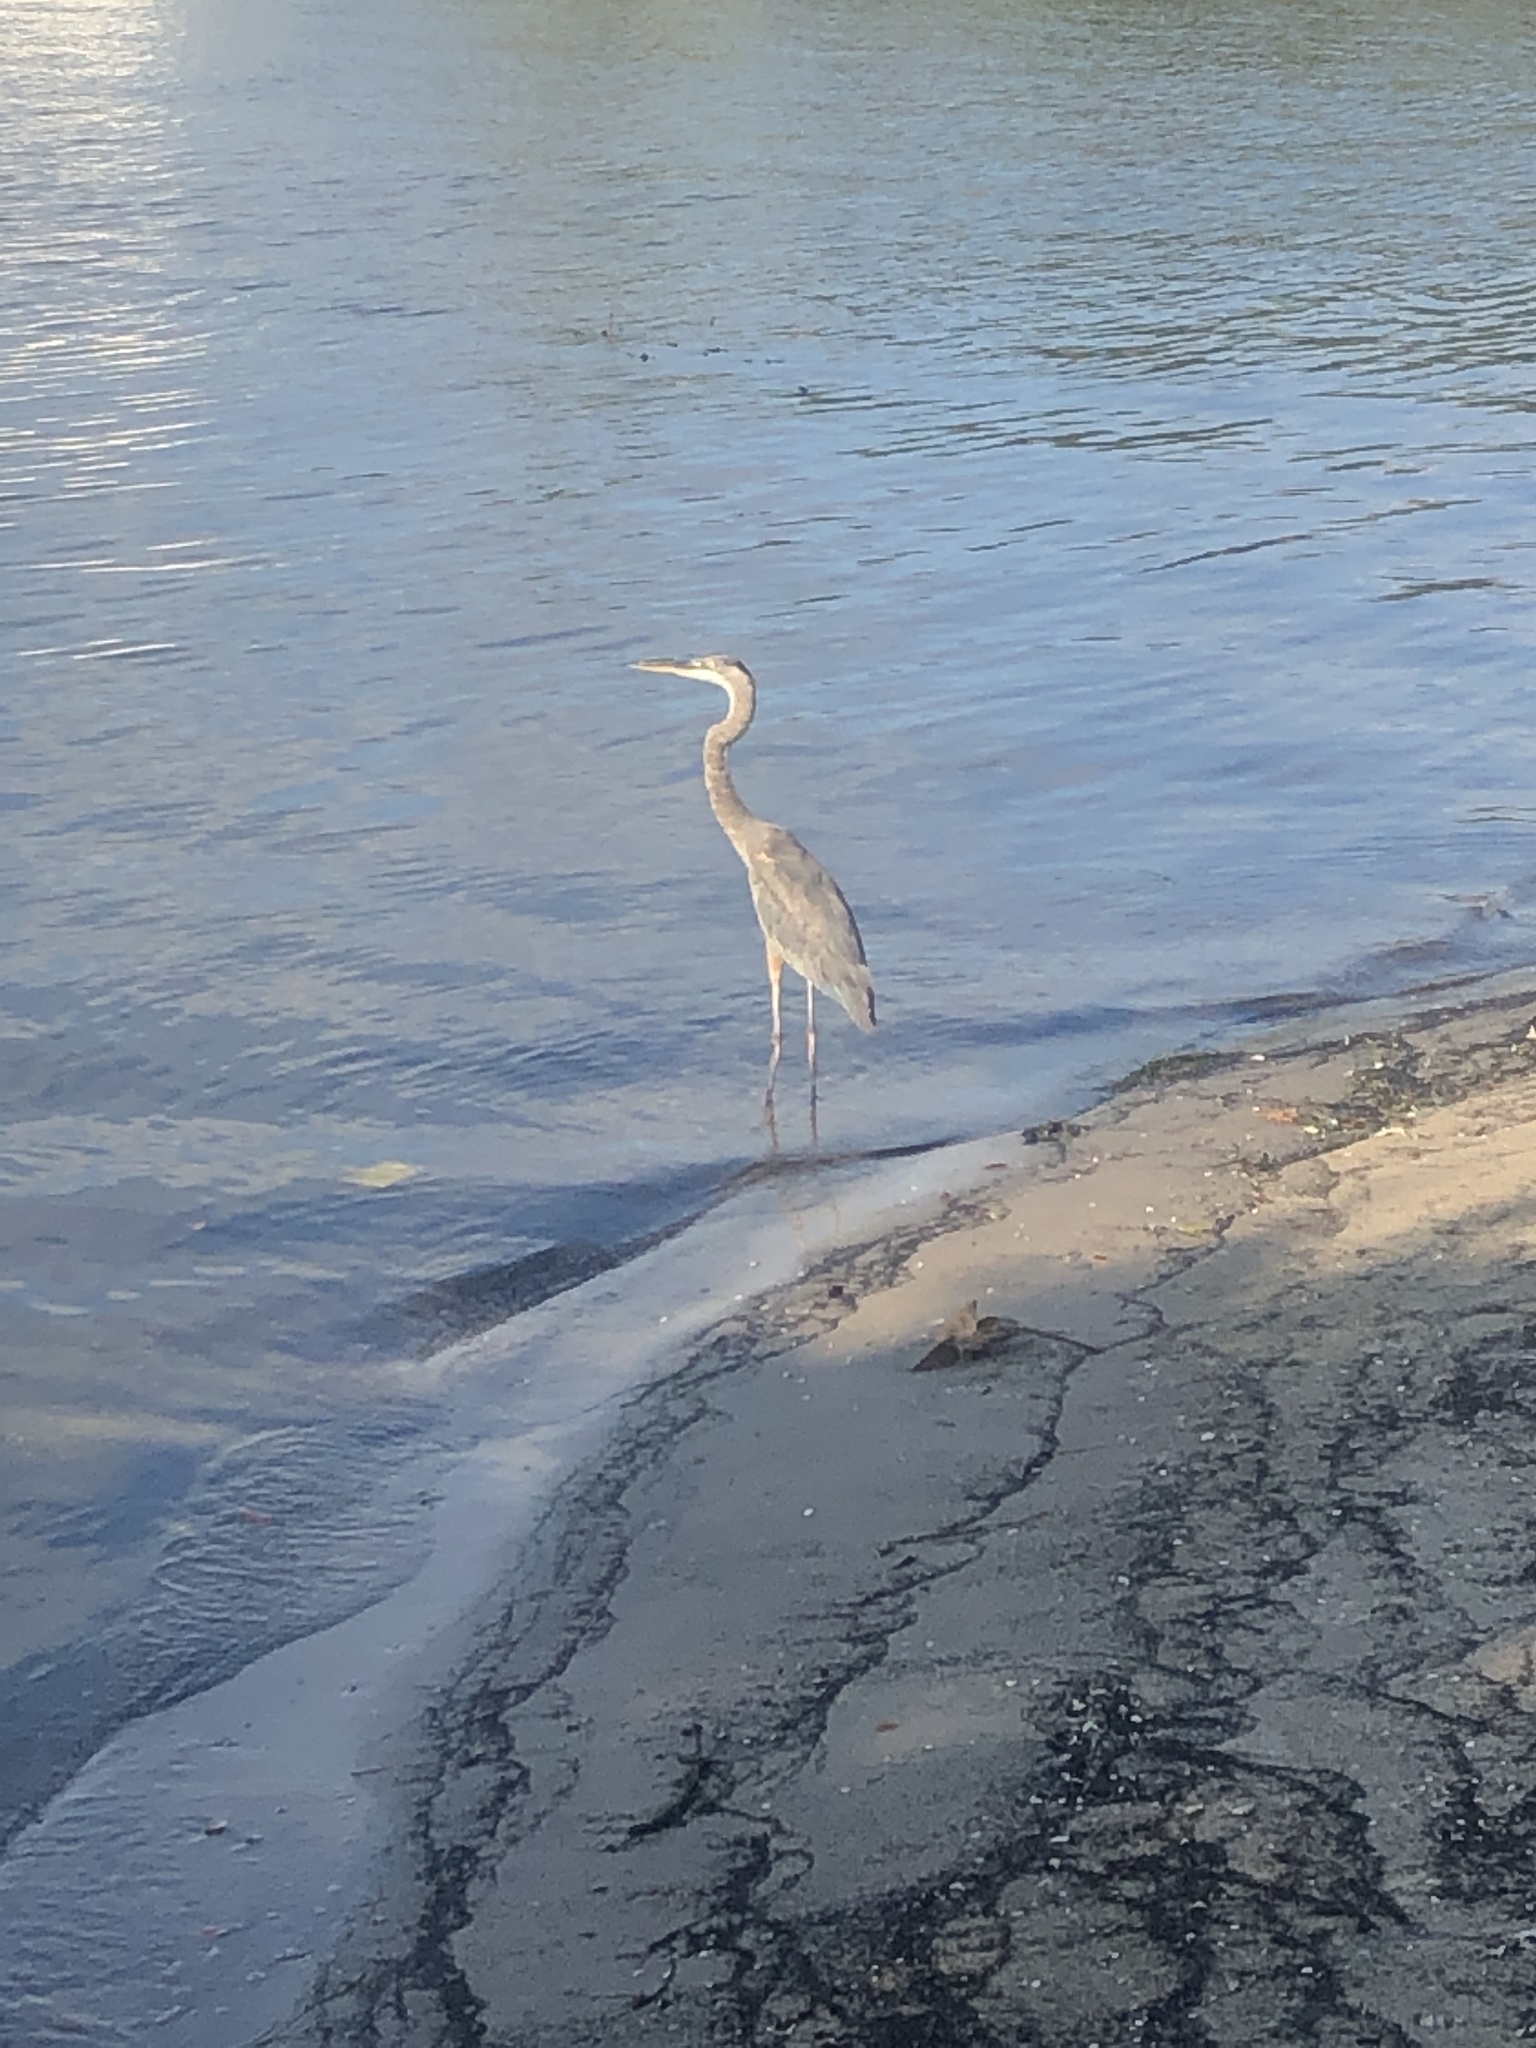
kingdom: Animalia
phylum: Chordata
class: Aves
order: Pelecaniformes
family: Ardeidae
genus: Ardea
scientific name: Ardea herodias
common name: Great blue heron
